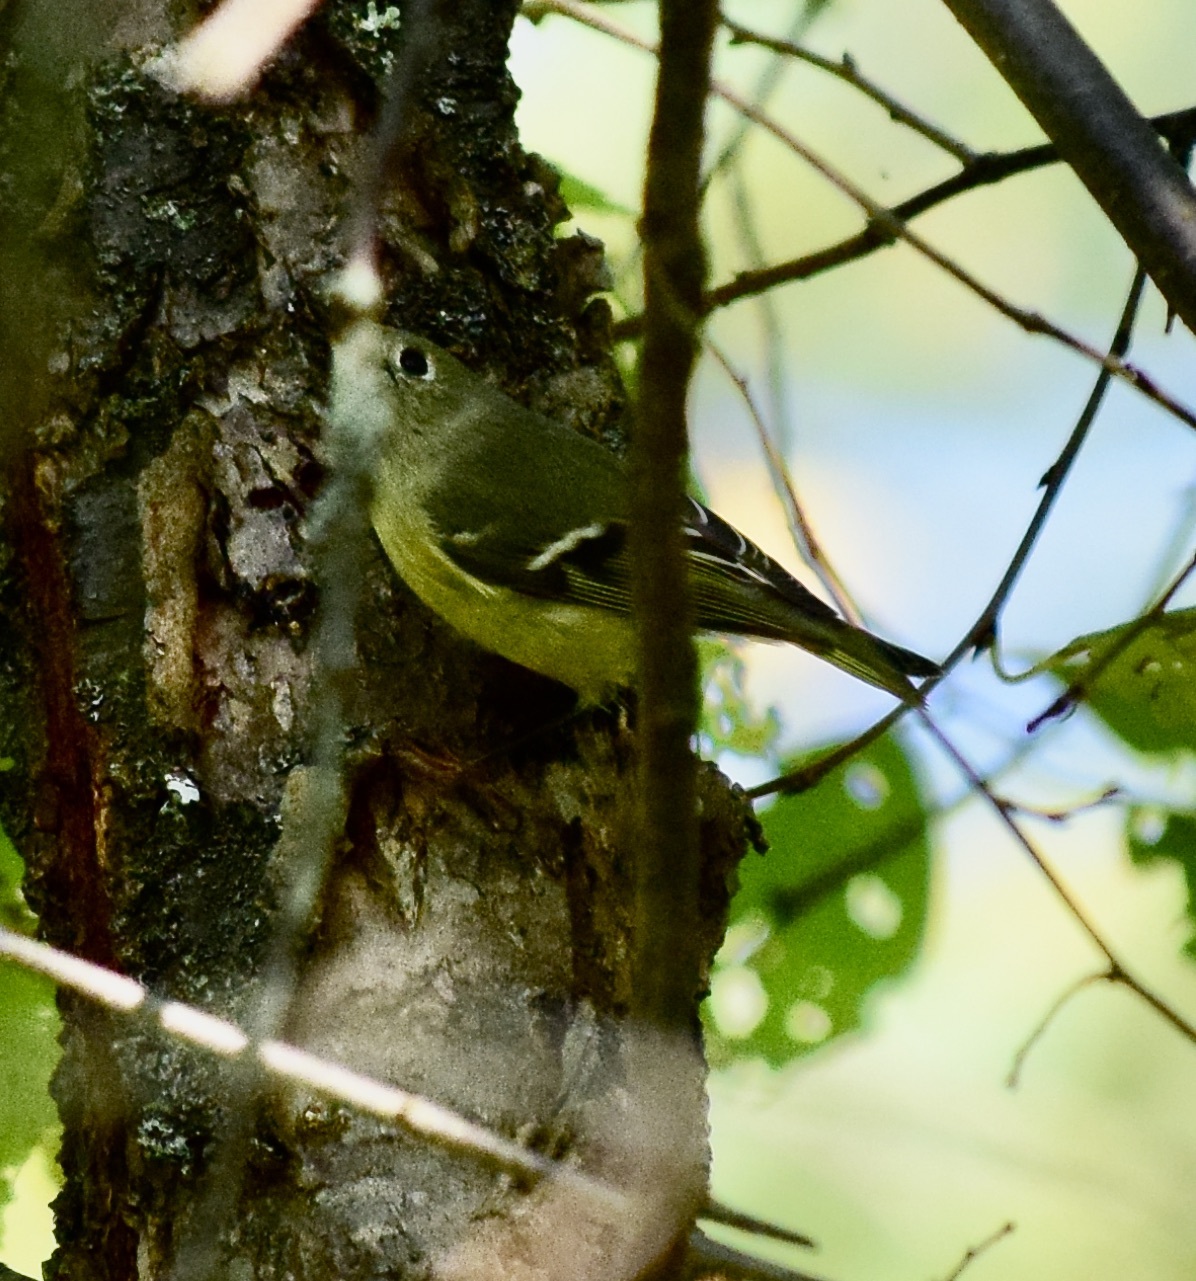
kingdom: Animalia
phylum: Chordata
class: Aves
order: Passeriformes
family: Regulidae
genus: Regulus
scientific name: Regulus calendula
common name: Ruby-crowned kinglet
